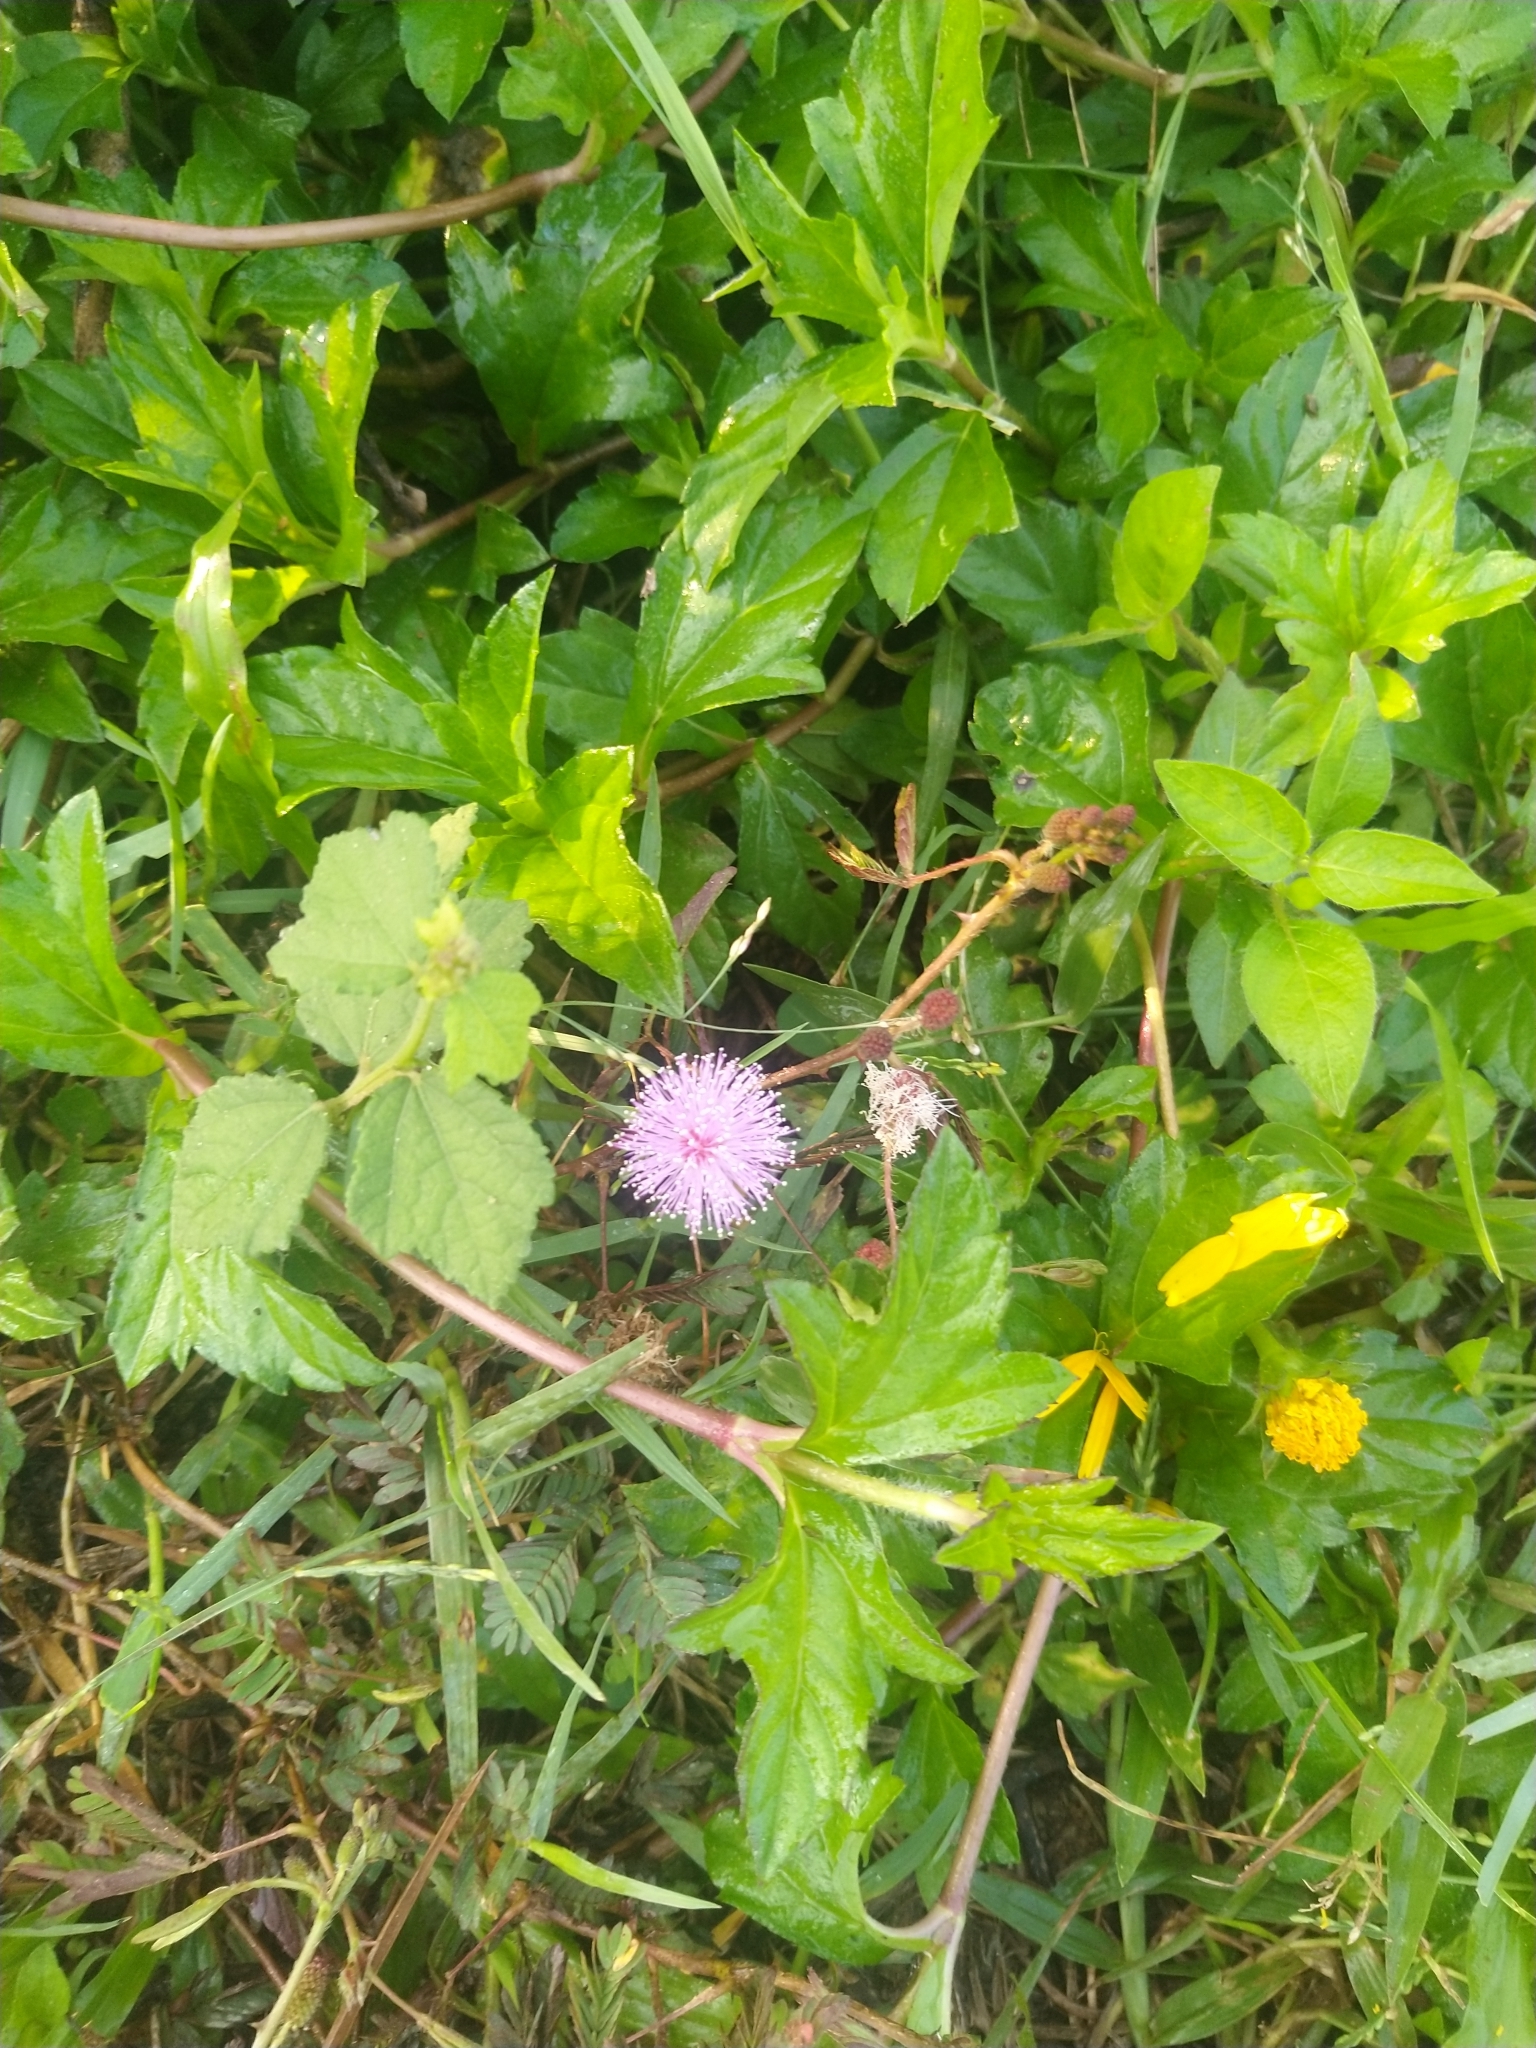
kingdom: Plantae
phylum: Tracheophyta
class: Magnoliopsida
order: Fabales
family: Fabaceae
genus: Mimosa
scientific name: Mimosa pudica
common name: Sensitive plant
